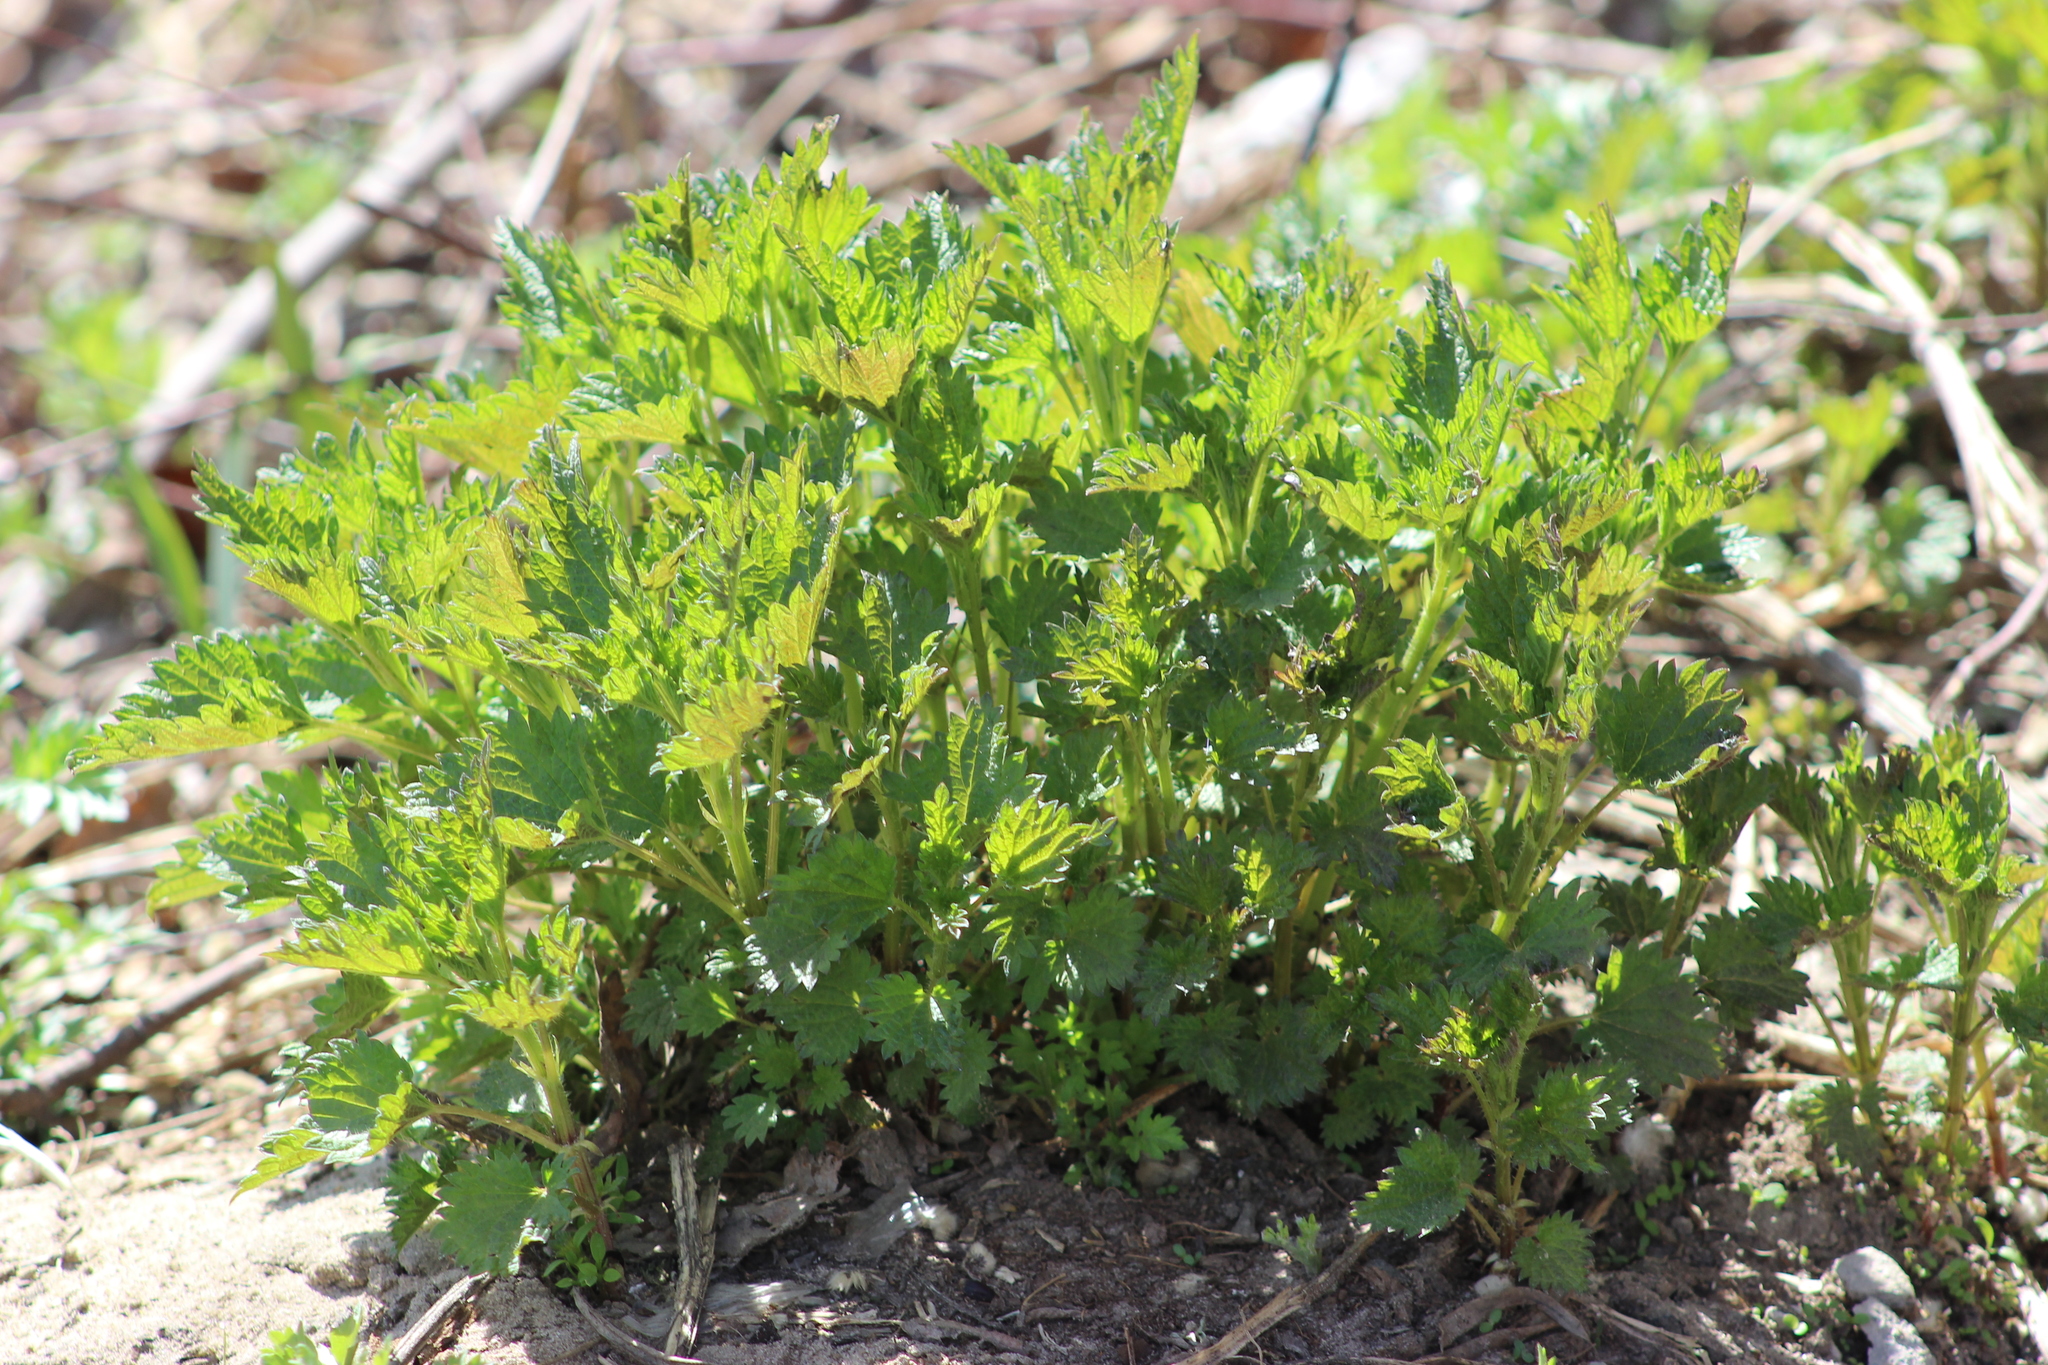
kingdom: Plantae
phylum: Tracheophyta
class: Magnoliopsida
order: Rosales
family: Urticaceae
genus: Urtica
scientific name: Urtica dioica
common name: Common nettle
